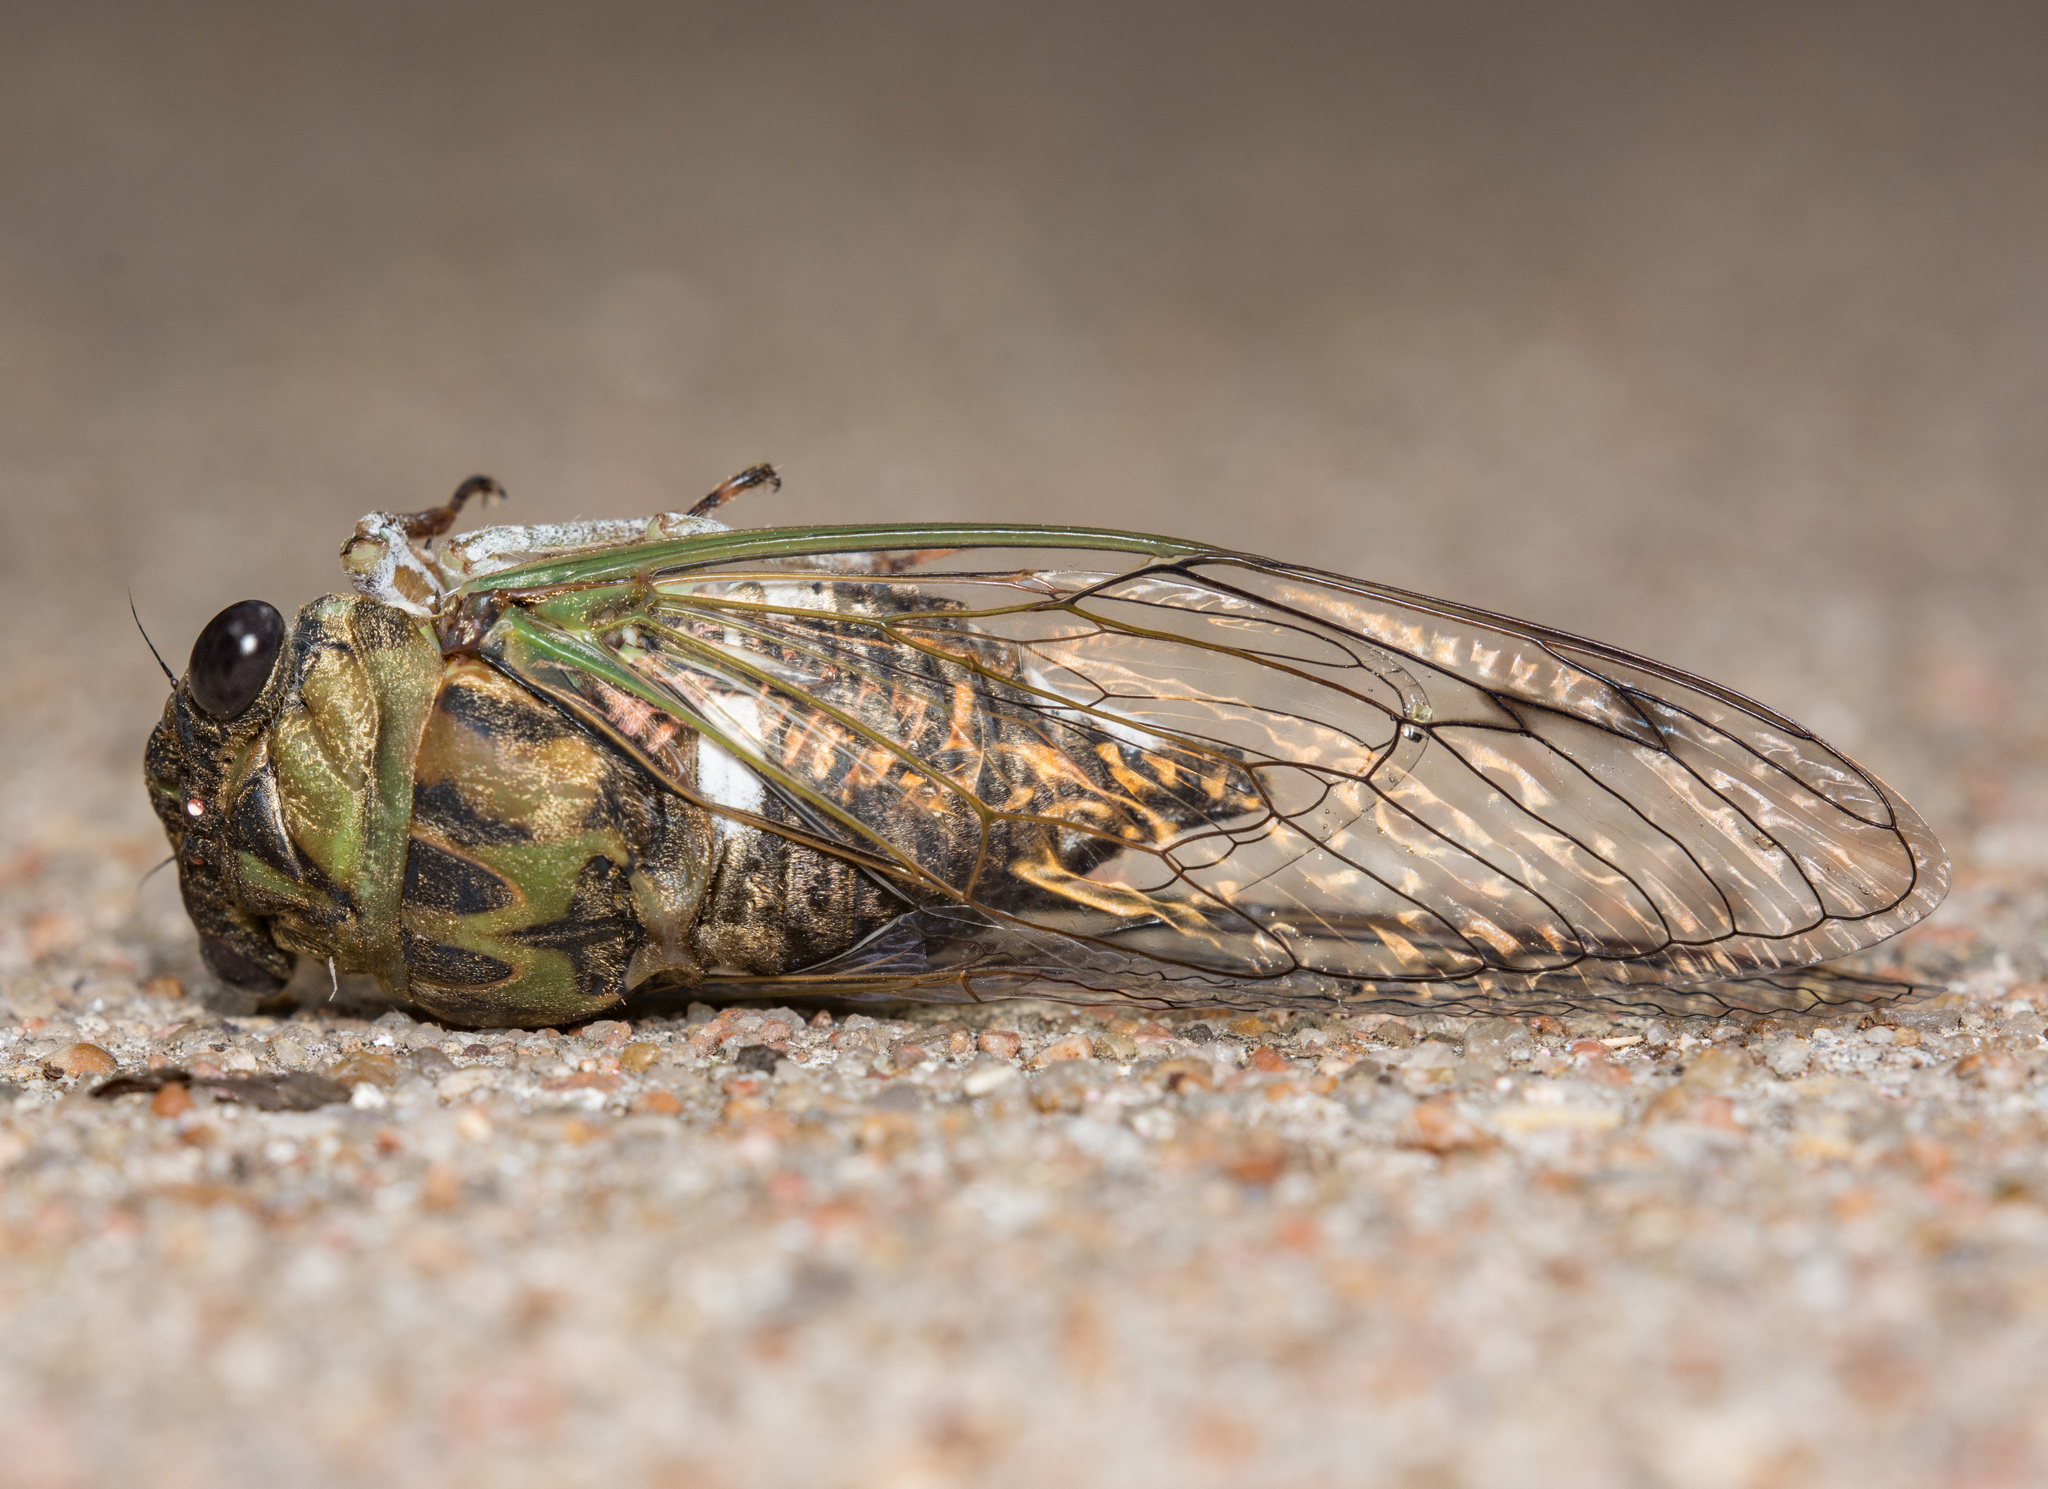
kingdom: Animalia
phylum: Arthropoda
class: Insecta
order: Hemiptera
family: Cicadidae
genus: Neotibicen
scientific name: Neotibicen pruinosus
